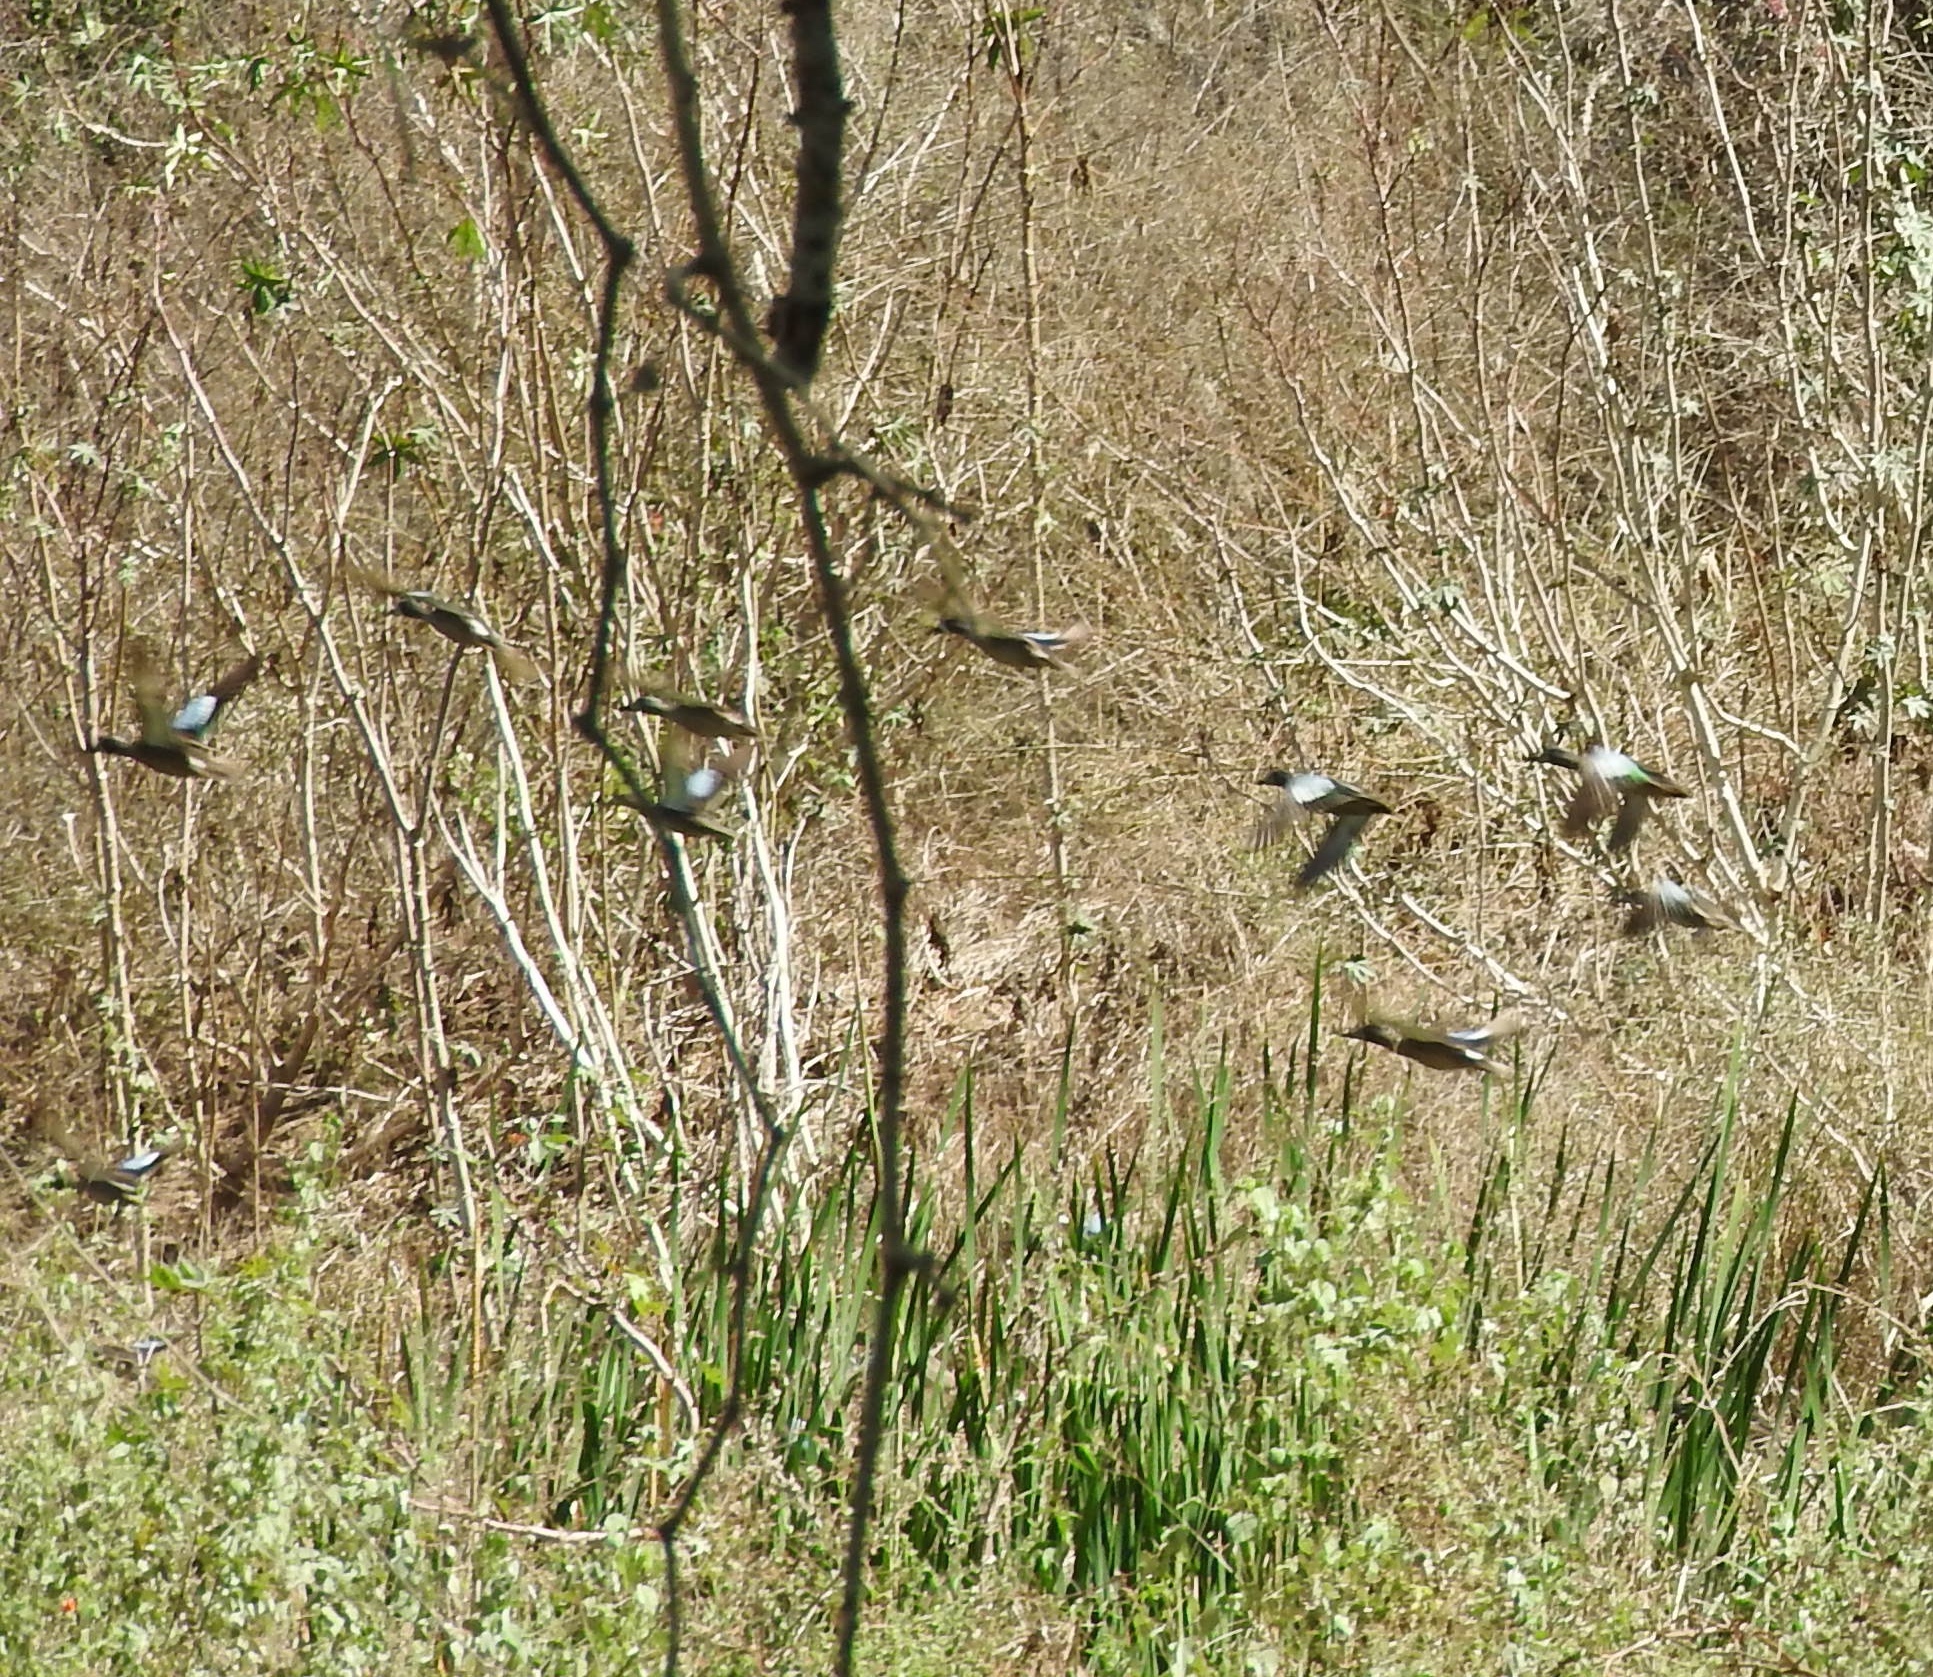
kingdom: Animalia
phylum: Chordata
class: Aves
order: Anseriformes
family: Anatidae
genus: Spatula
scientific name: Spatula discors
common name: Blue-winged teal
